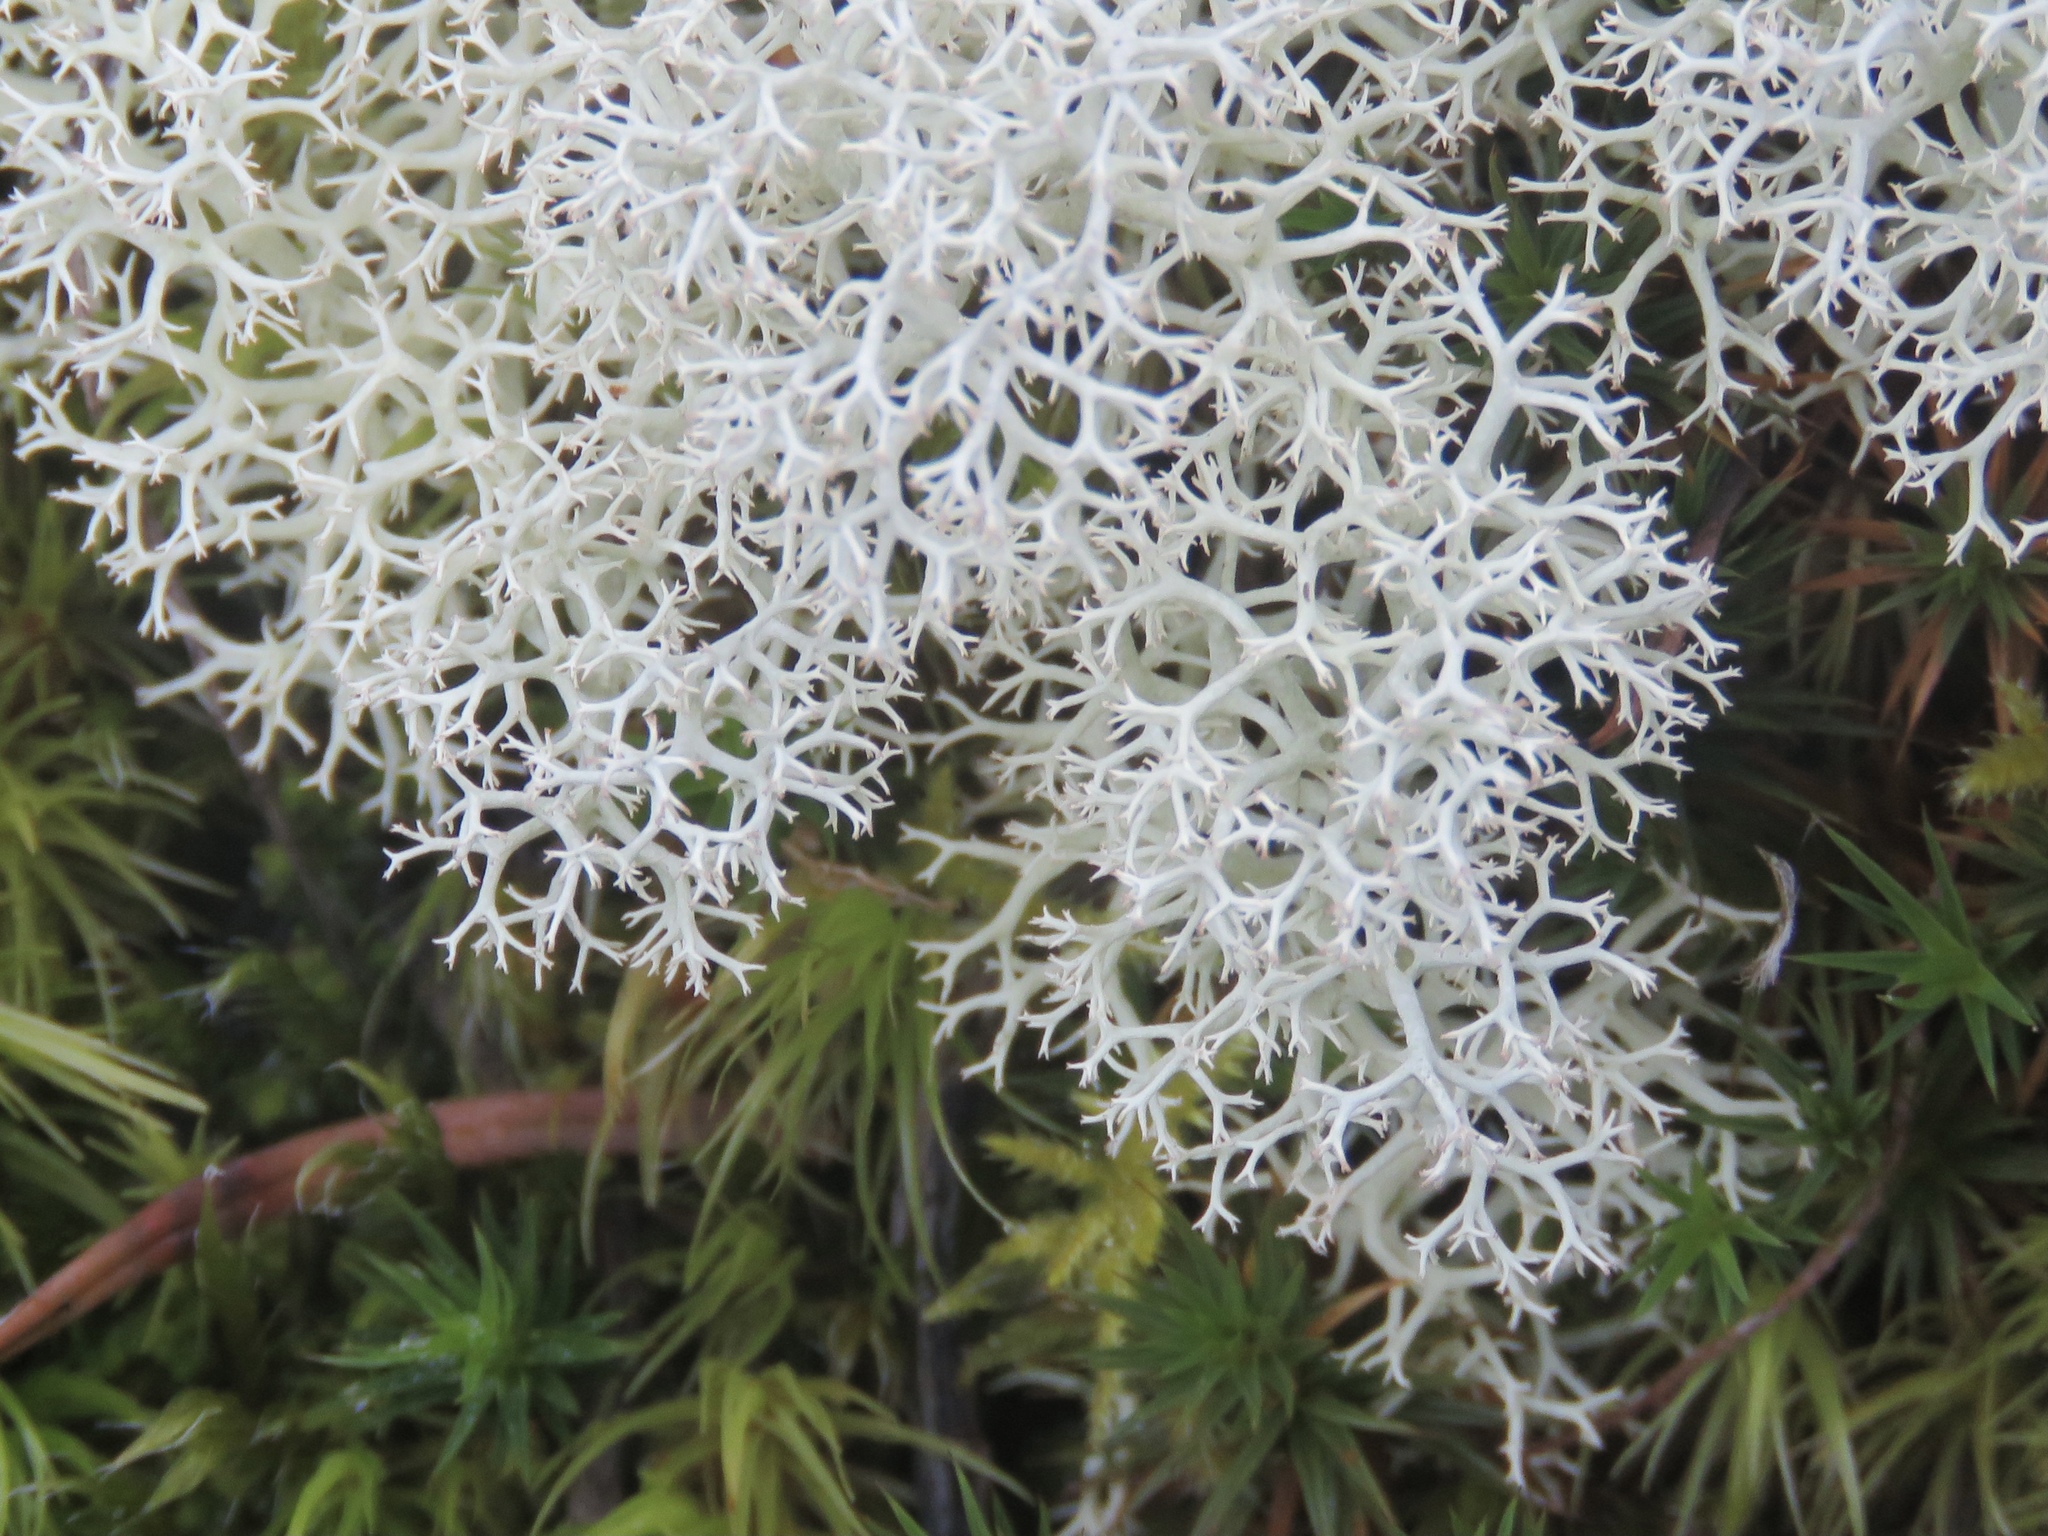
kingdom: Fungi
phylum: Ascomycota
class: Lecanoromycetes
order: Lecanorales
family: Cladoniaceae
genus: Cladonia
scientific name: Cladonia portentosa
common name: Reindeer lichen
